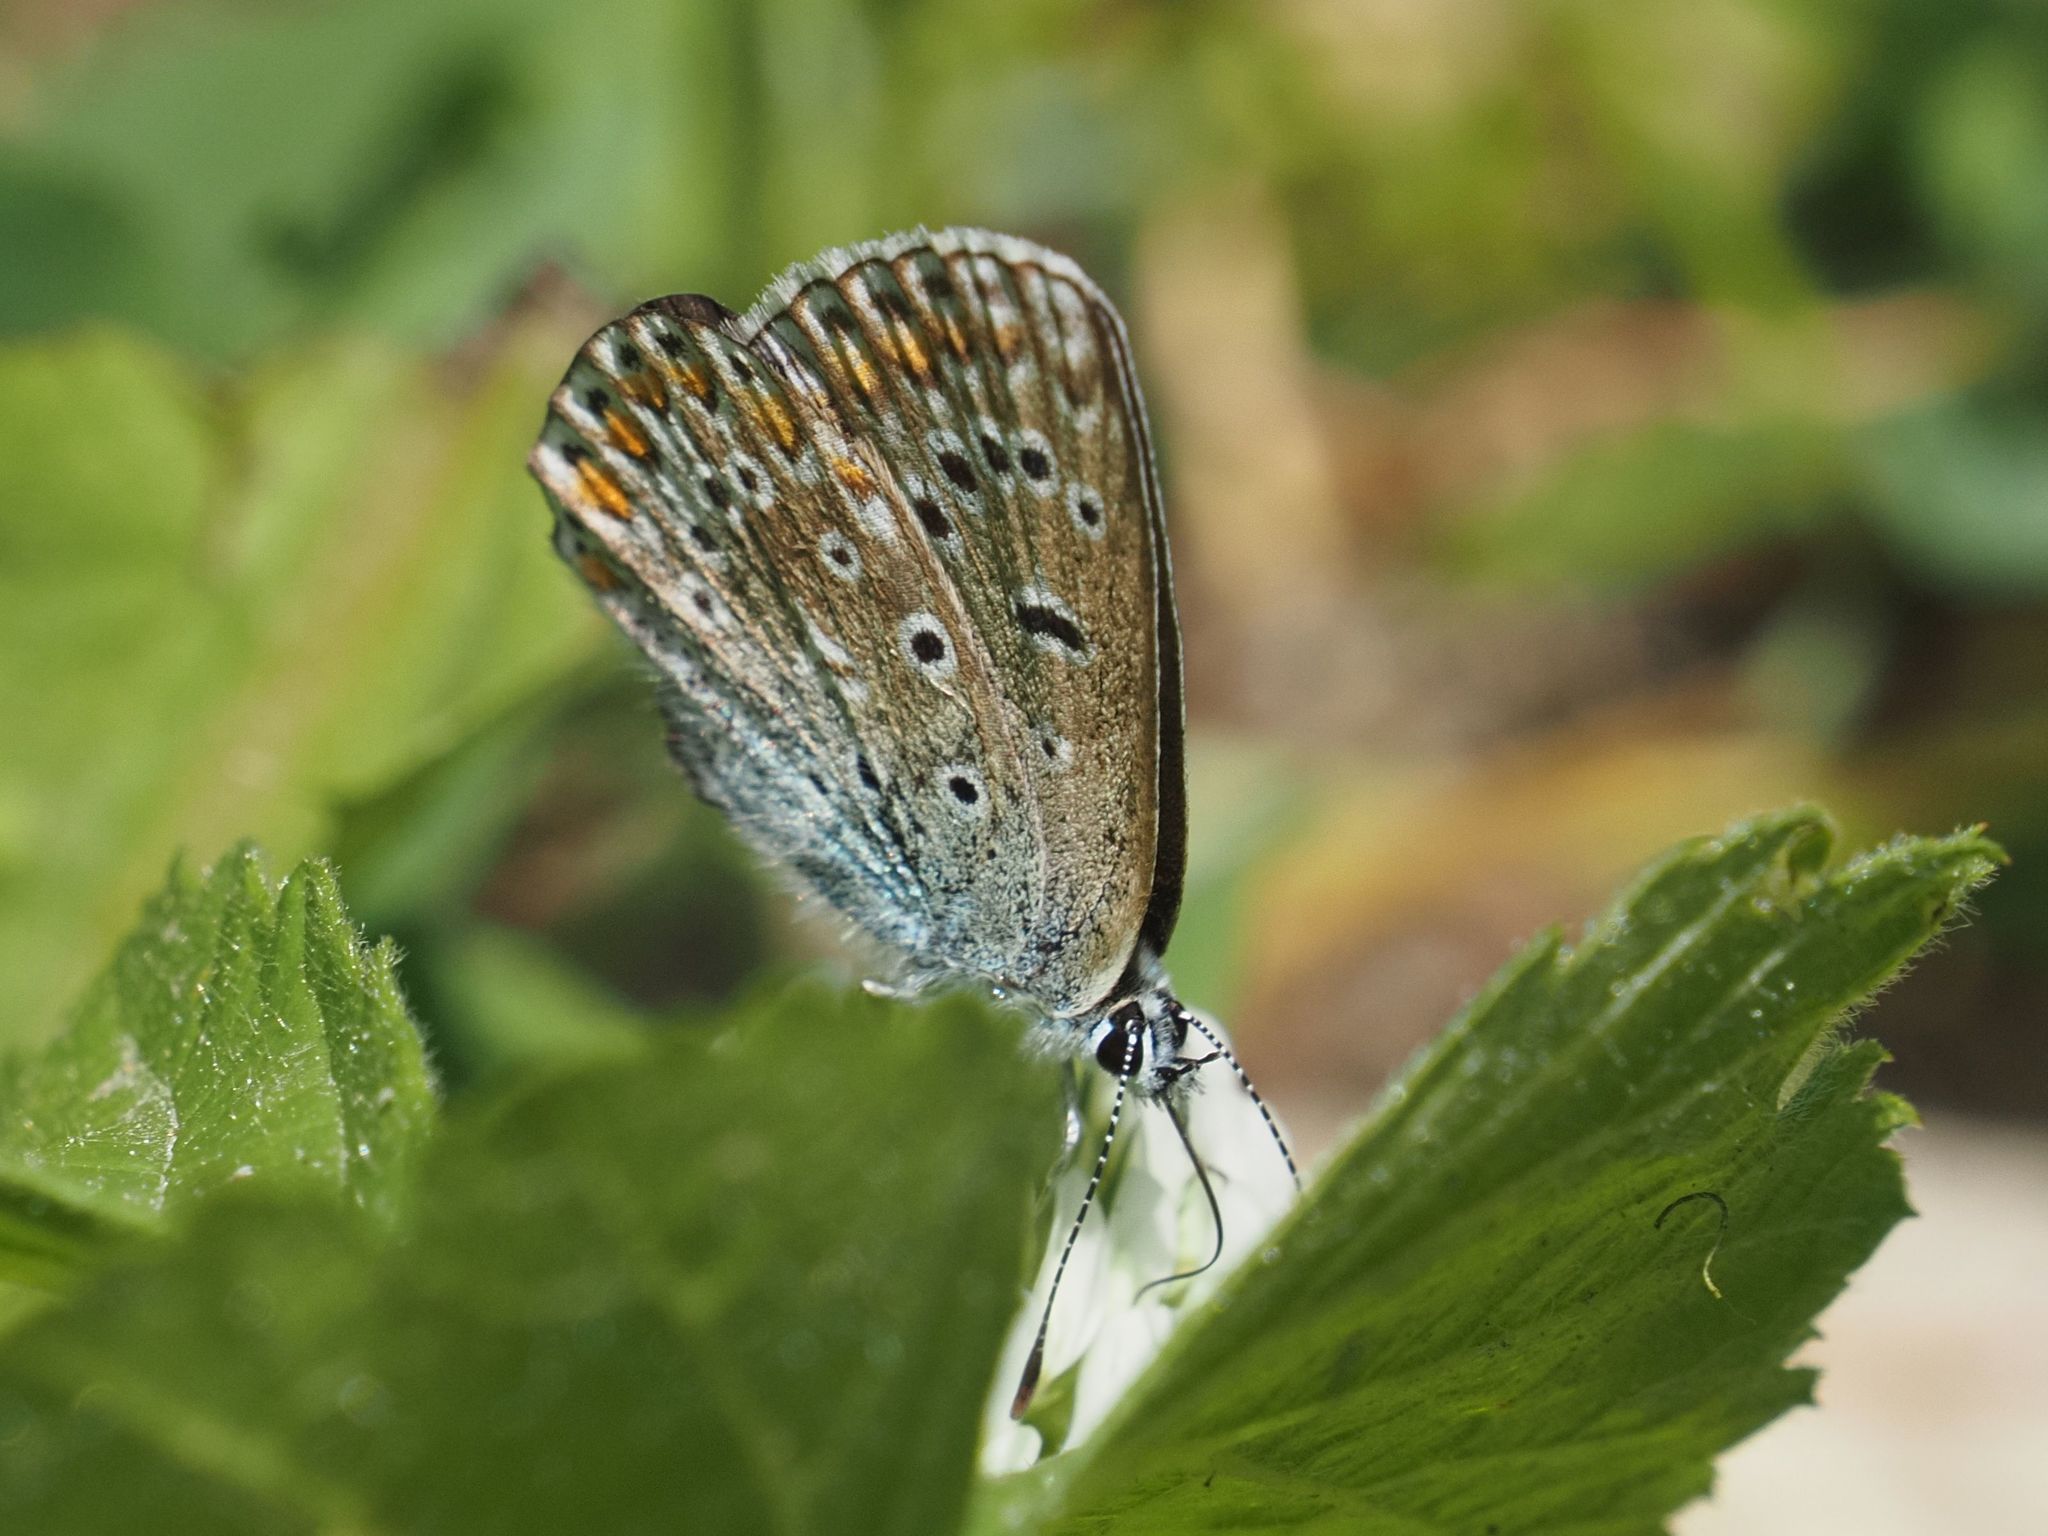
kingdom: Animalia
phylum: Arthropoda
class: Insecta
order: Lepidoptera
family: Lycaenidae
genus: Polyommatus
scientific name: Polyommatus icarus
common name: Common blue
